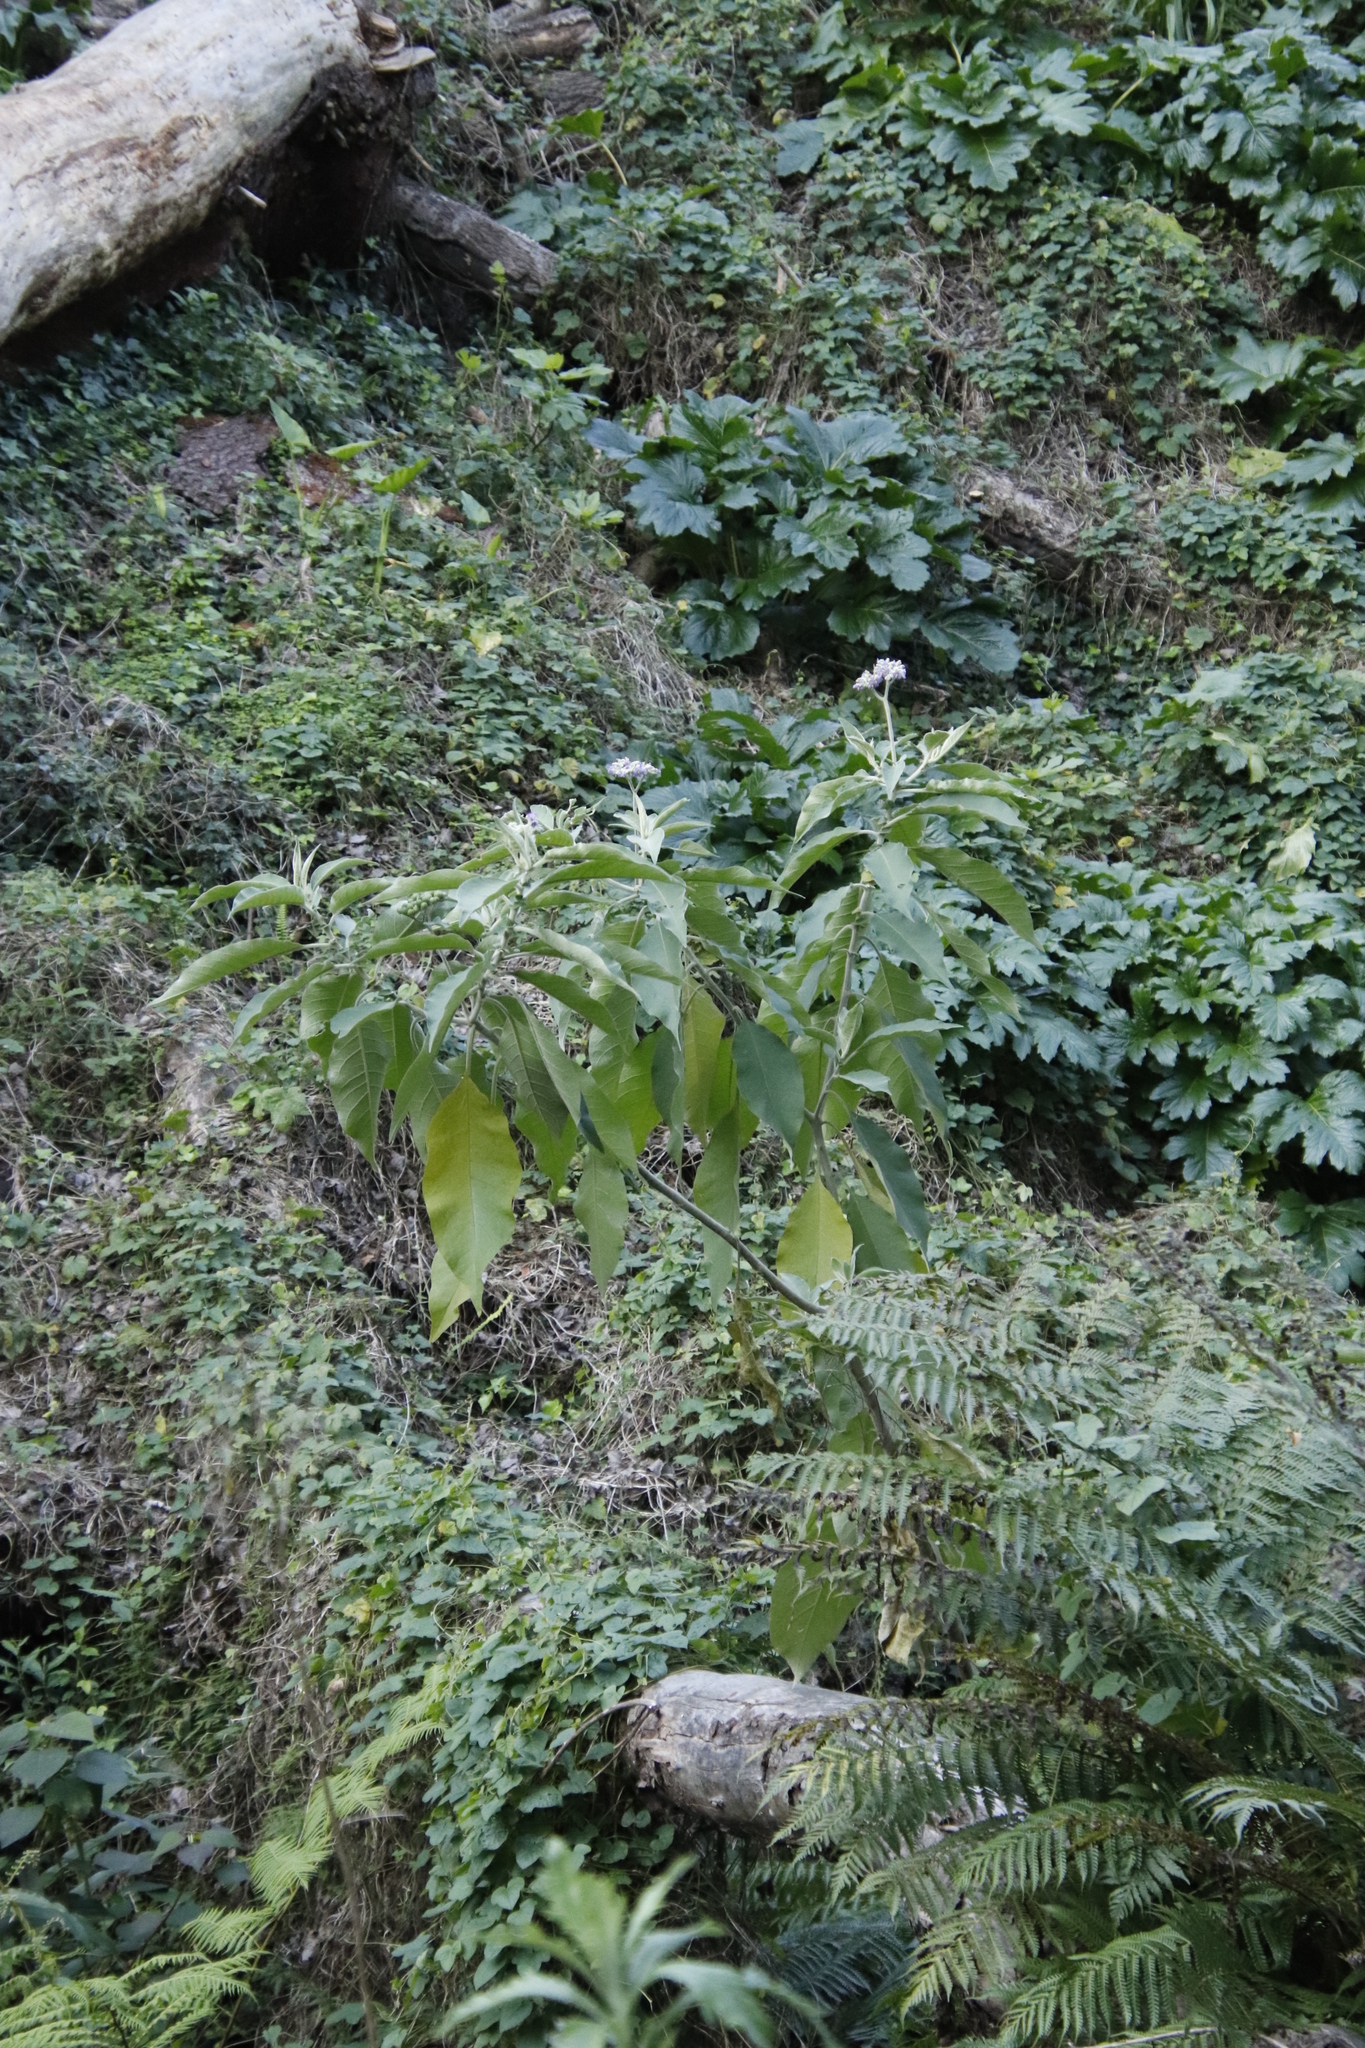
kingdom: Plantae
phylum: Tracheophyta
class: Magnoliopsida
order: Solanales
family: Solanaceae
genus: Solanum
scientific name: Solanum mauritianum
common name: Earleaf nightshade
